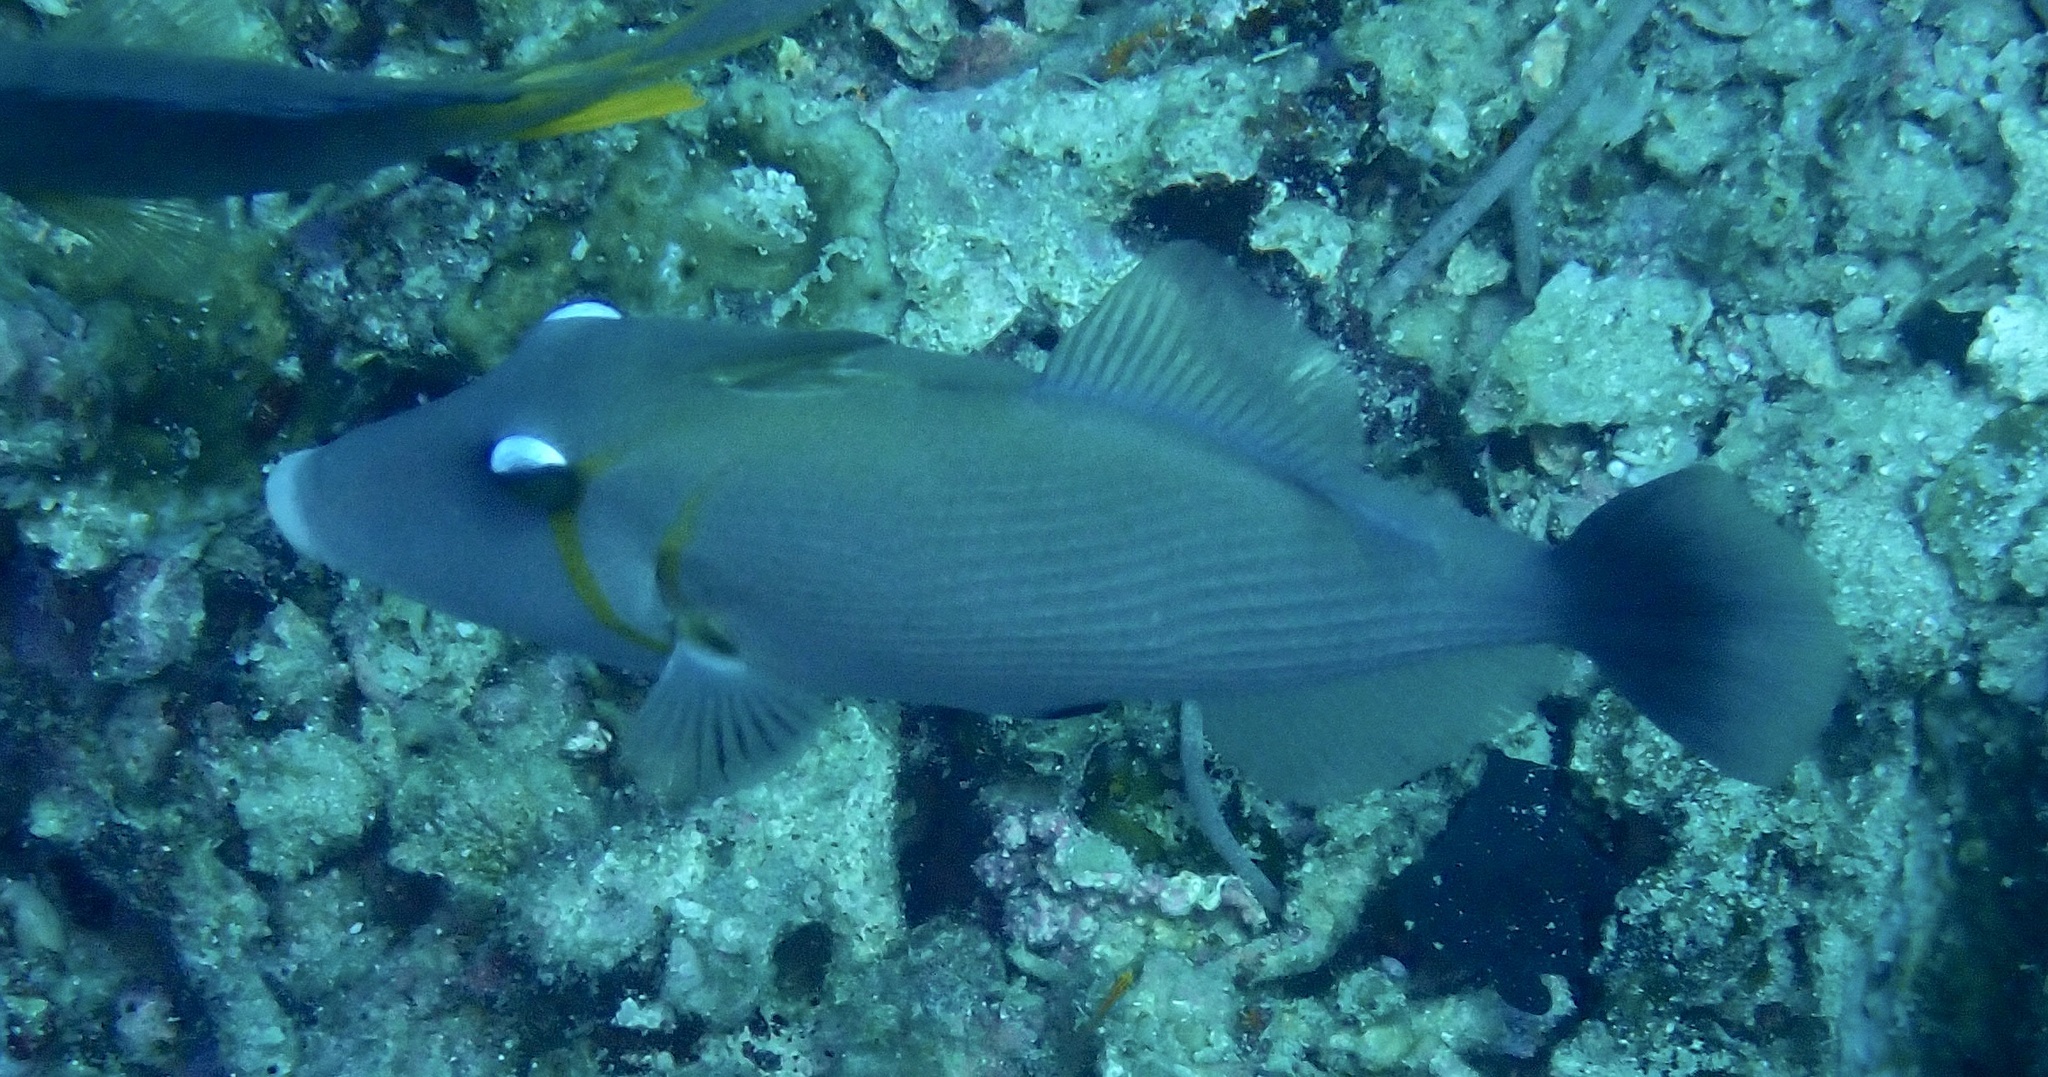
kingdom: Animalia
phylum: Chordata
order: Tetraodontiformes
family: Balistidae
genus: Sufflamen
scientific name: Sufflamen bursa
